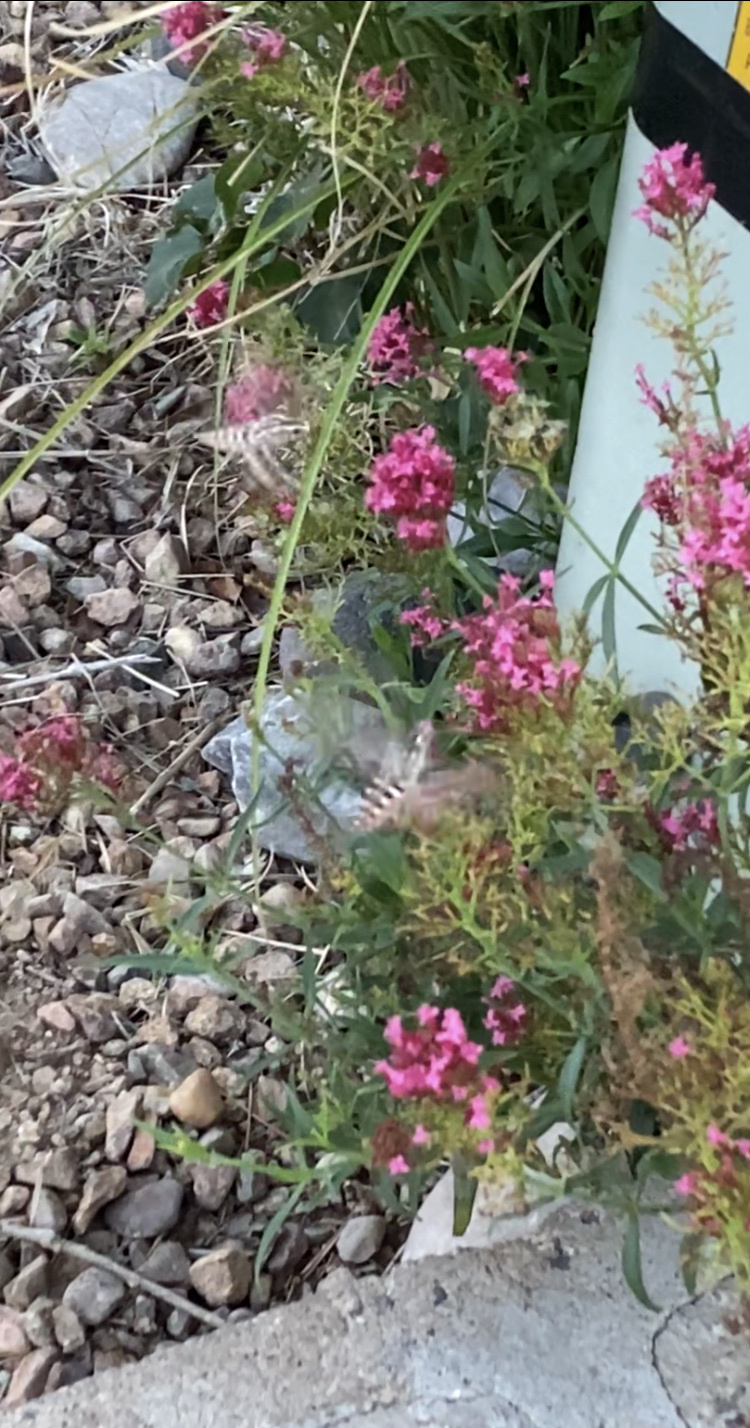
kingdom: Animalia
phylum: Arthropoda
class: Insecta
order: Lepidoptera
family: Sphingidae
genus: Hyles
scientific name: Hyles lineata
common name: White-lined sphinx
